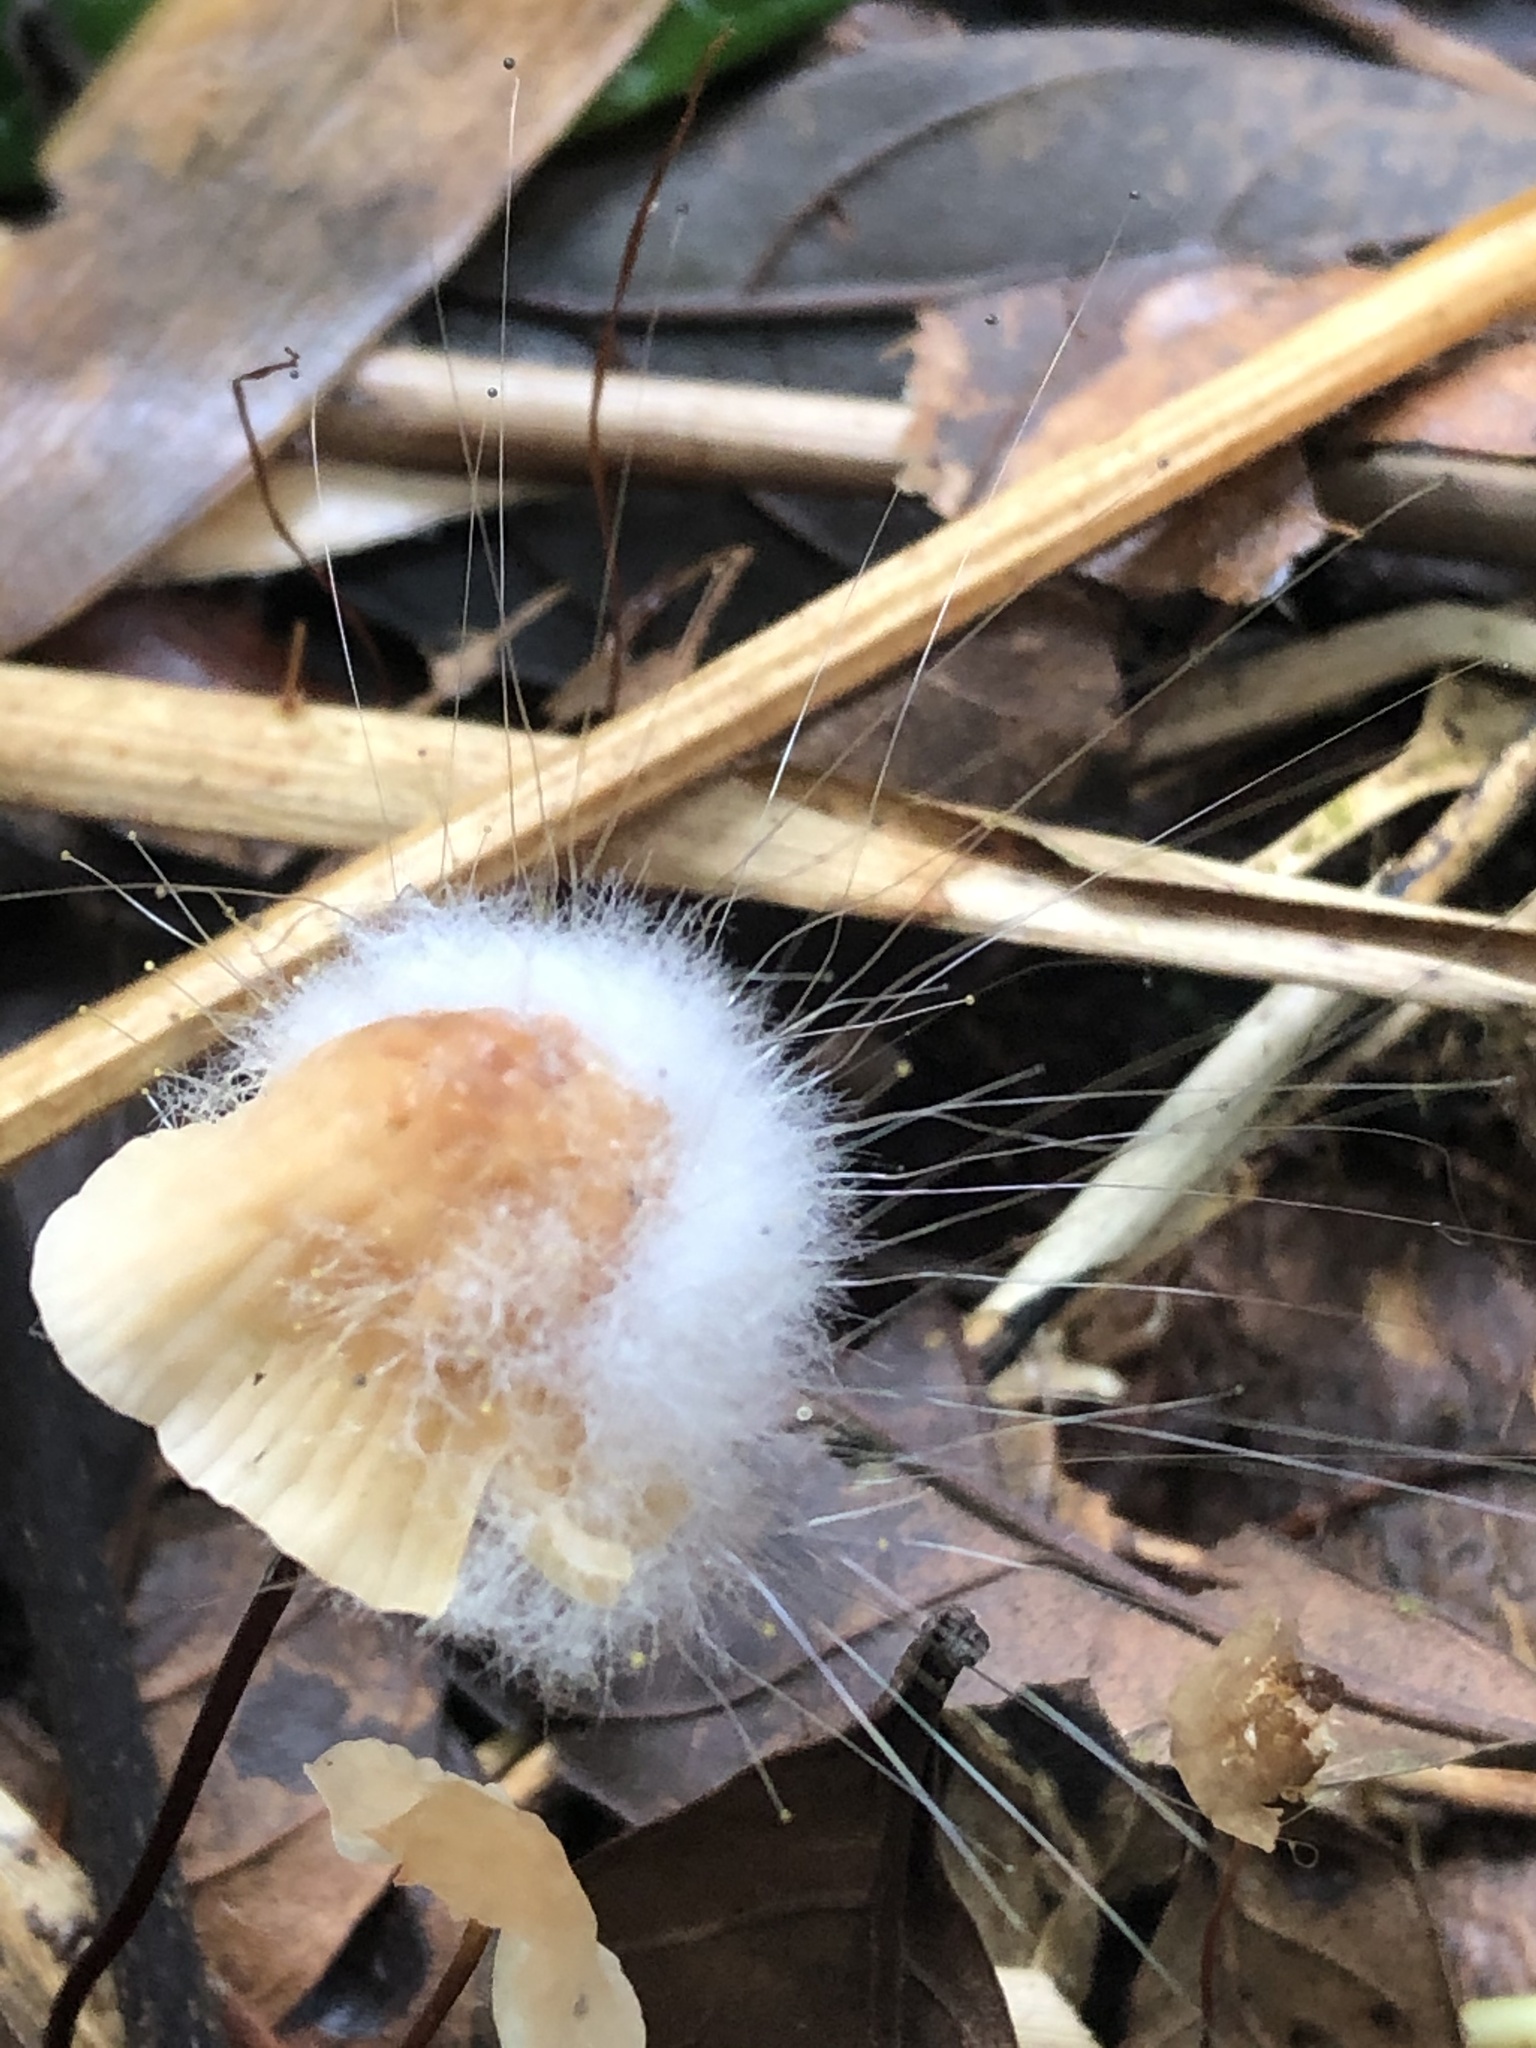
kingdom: Fungi
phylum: Mucoromycota
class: Mucoromycetes
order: Mucorales
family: Phycomycetaceae
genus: Spinellus
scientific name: Spinellus fusiger
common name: Bonnet mould
